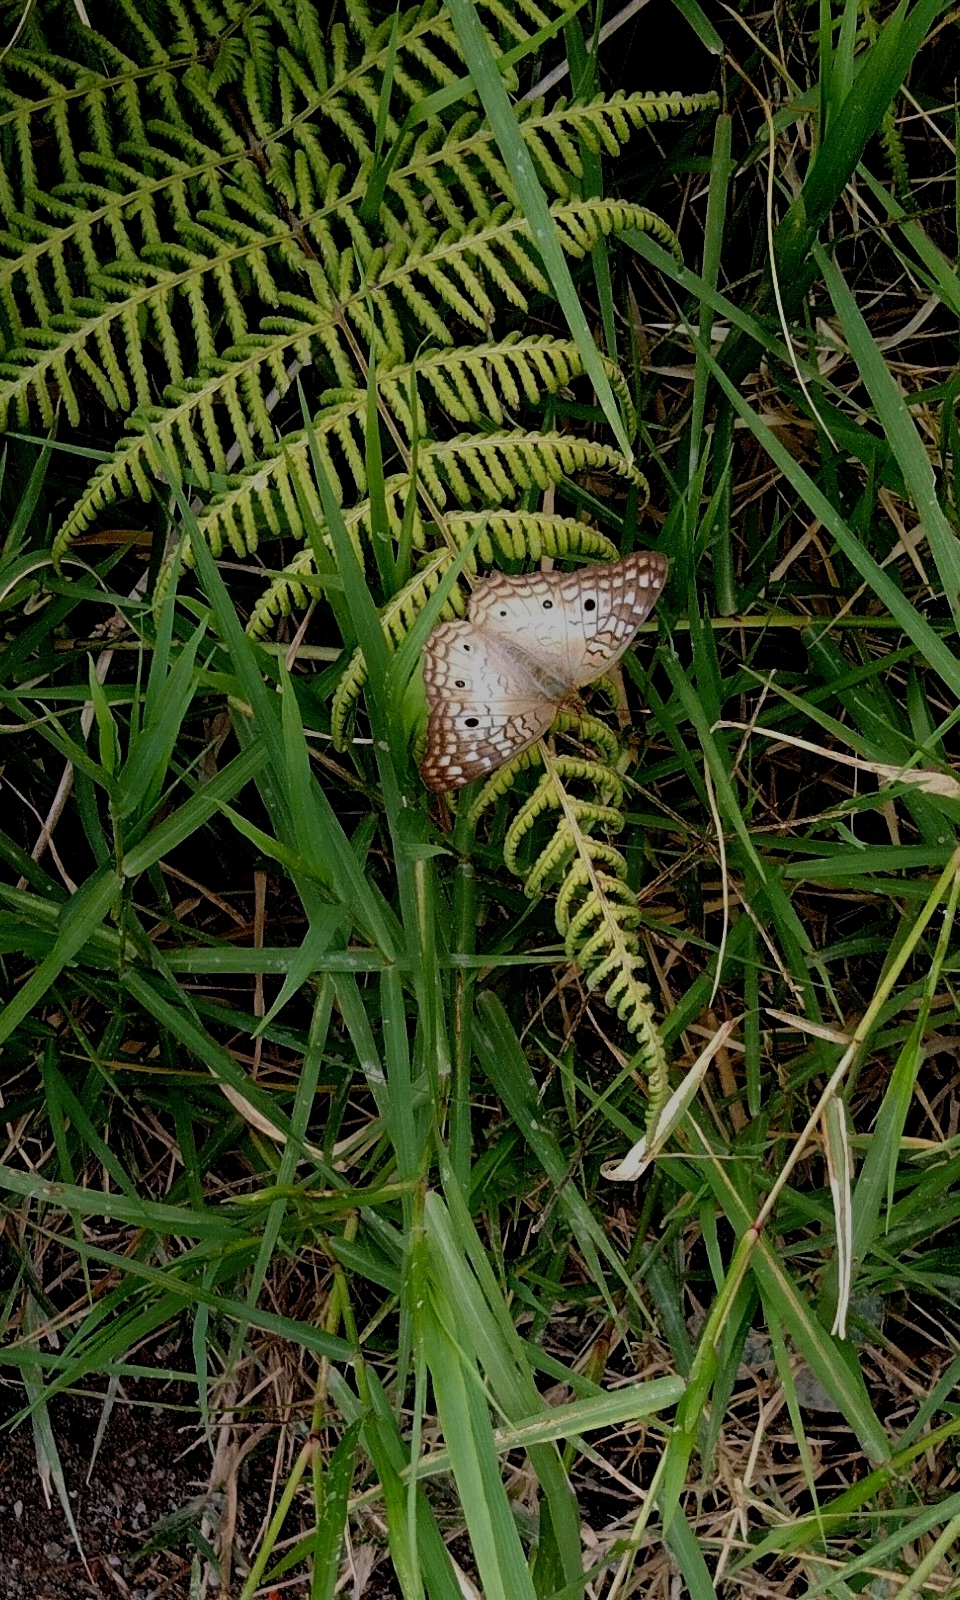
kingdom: Animalia
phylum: Arthropoda
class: Insecta
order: Lepidoptera
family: Nymphalidae
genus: Anartia
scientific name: Anartia jatrophae
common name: White peacock
